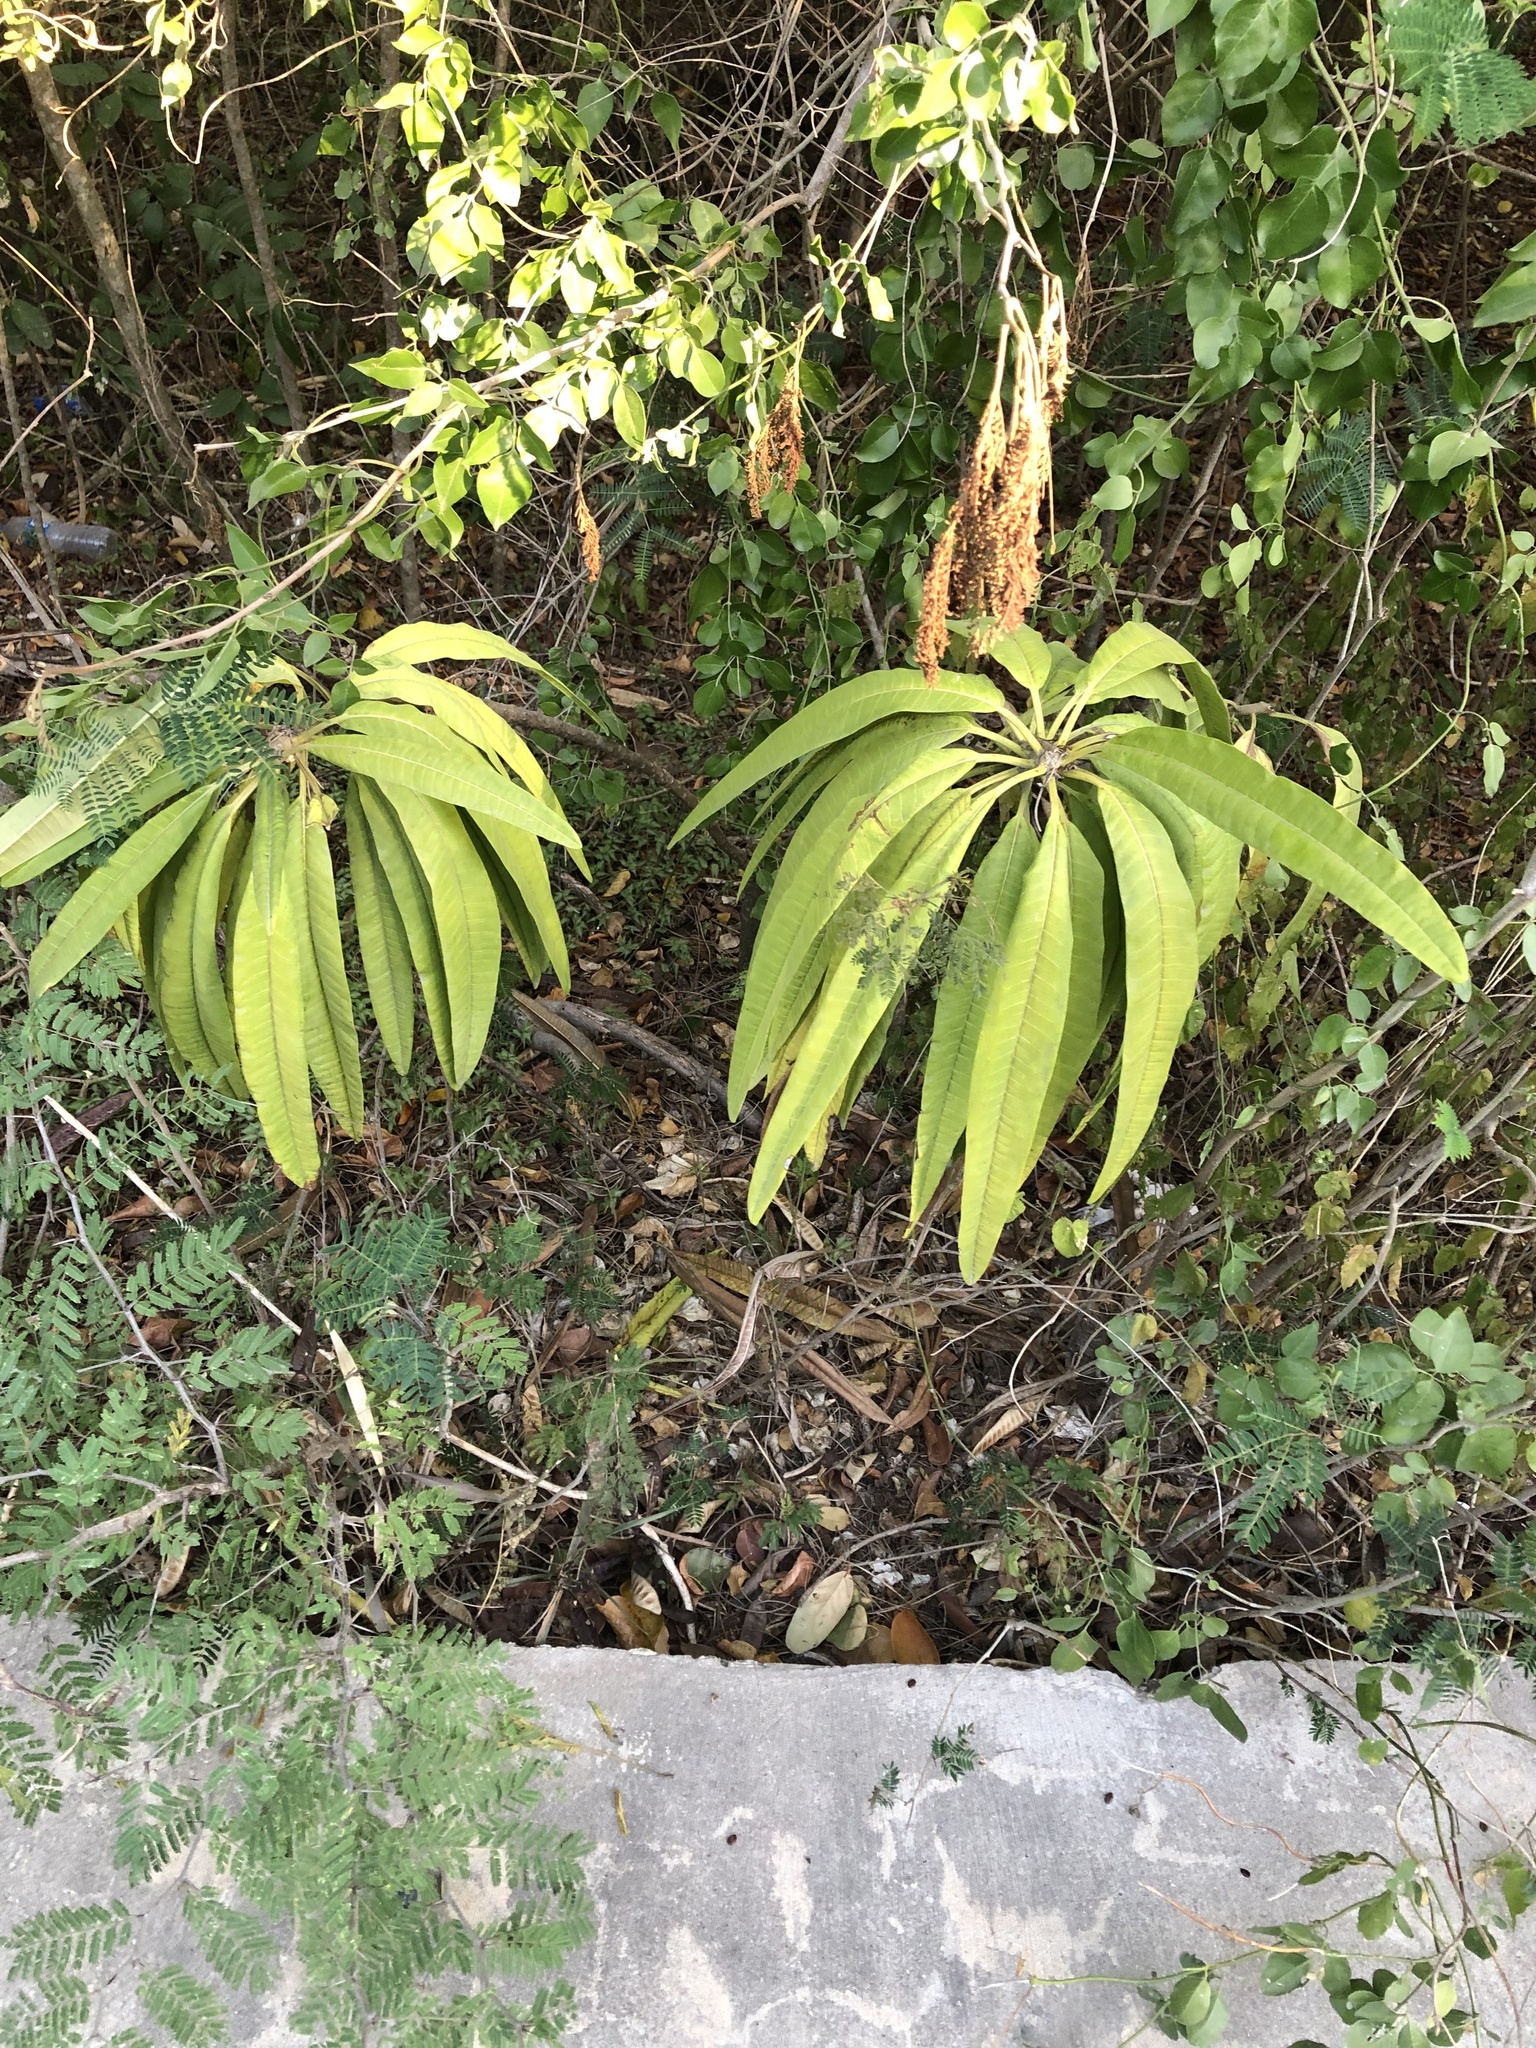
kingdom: Plantae
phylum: Tracheophyta
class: Magnoliopsida
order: Gentianales
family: Apocynaceae
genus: Plumeria
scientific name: Plumeria alba
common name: Wild frangipani
